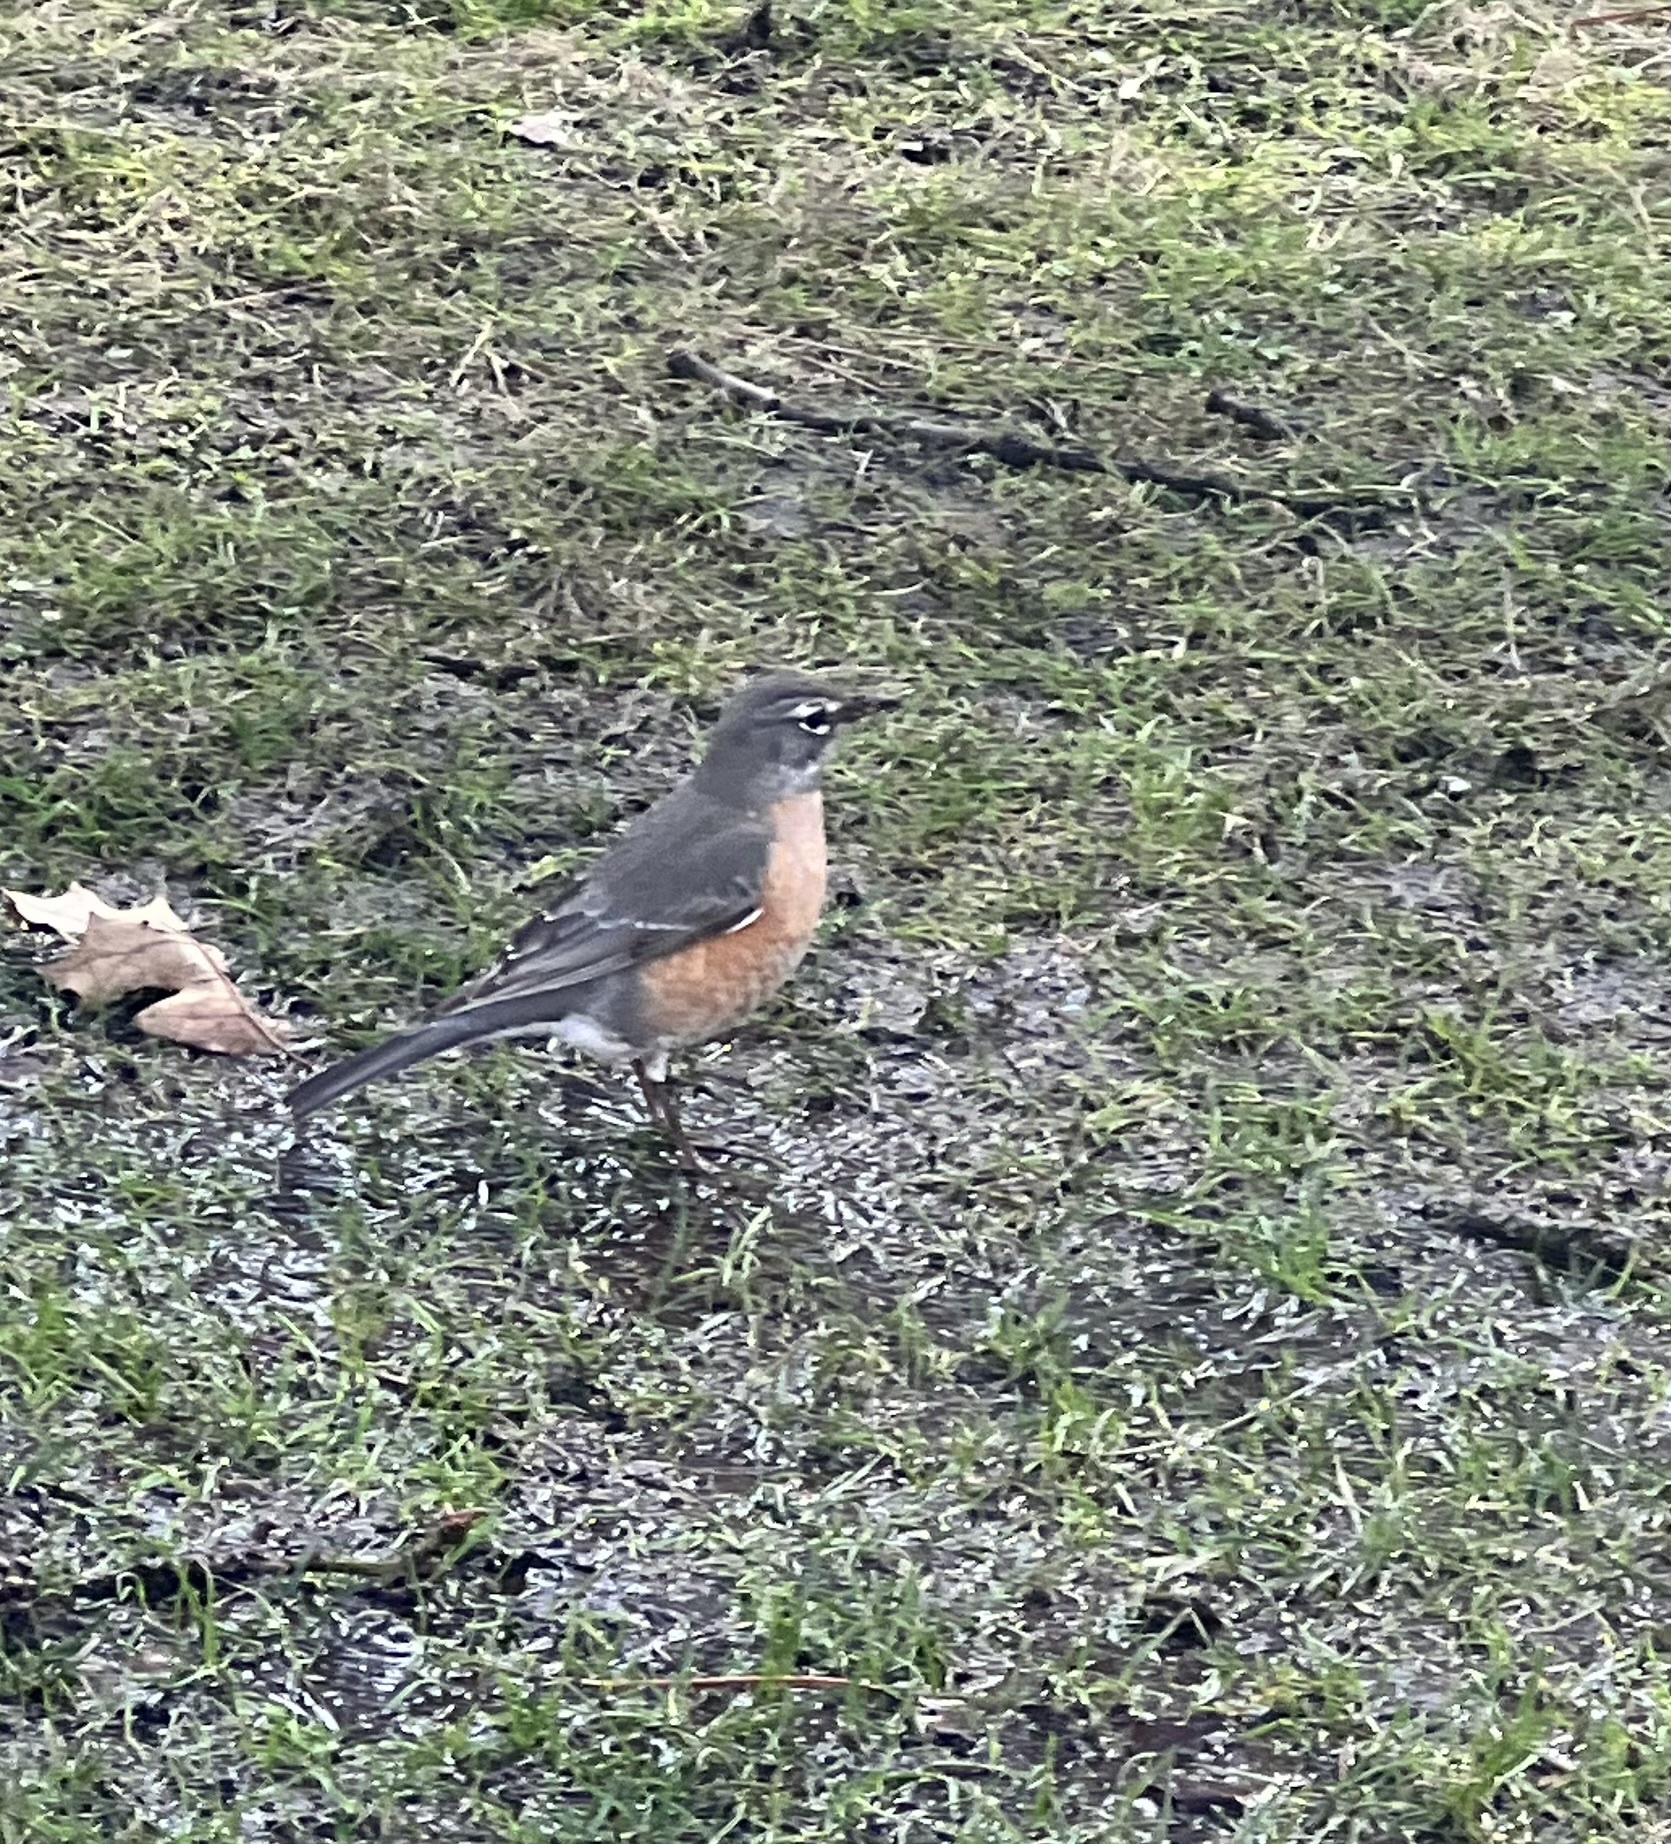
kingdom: Animalia
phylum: Chordata
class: Aves
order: Passeriformes
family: Turdidae
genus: Turdus
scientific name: Turdus migratorius
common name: American robin
